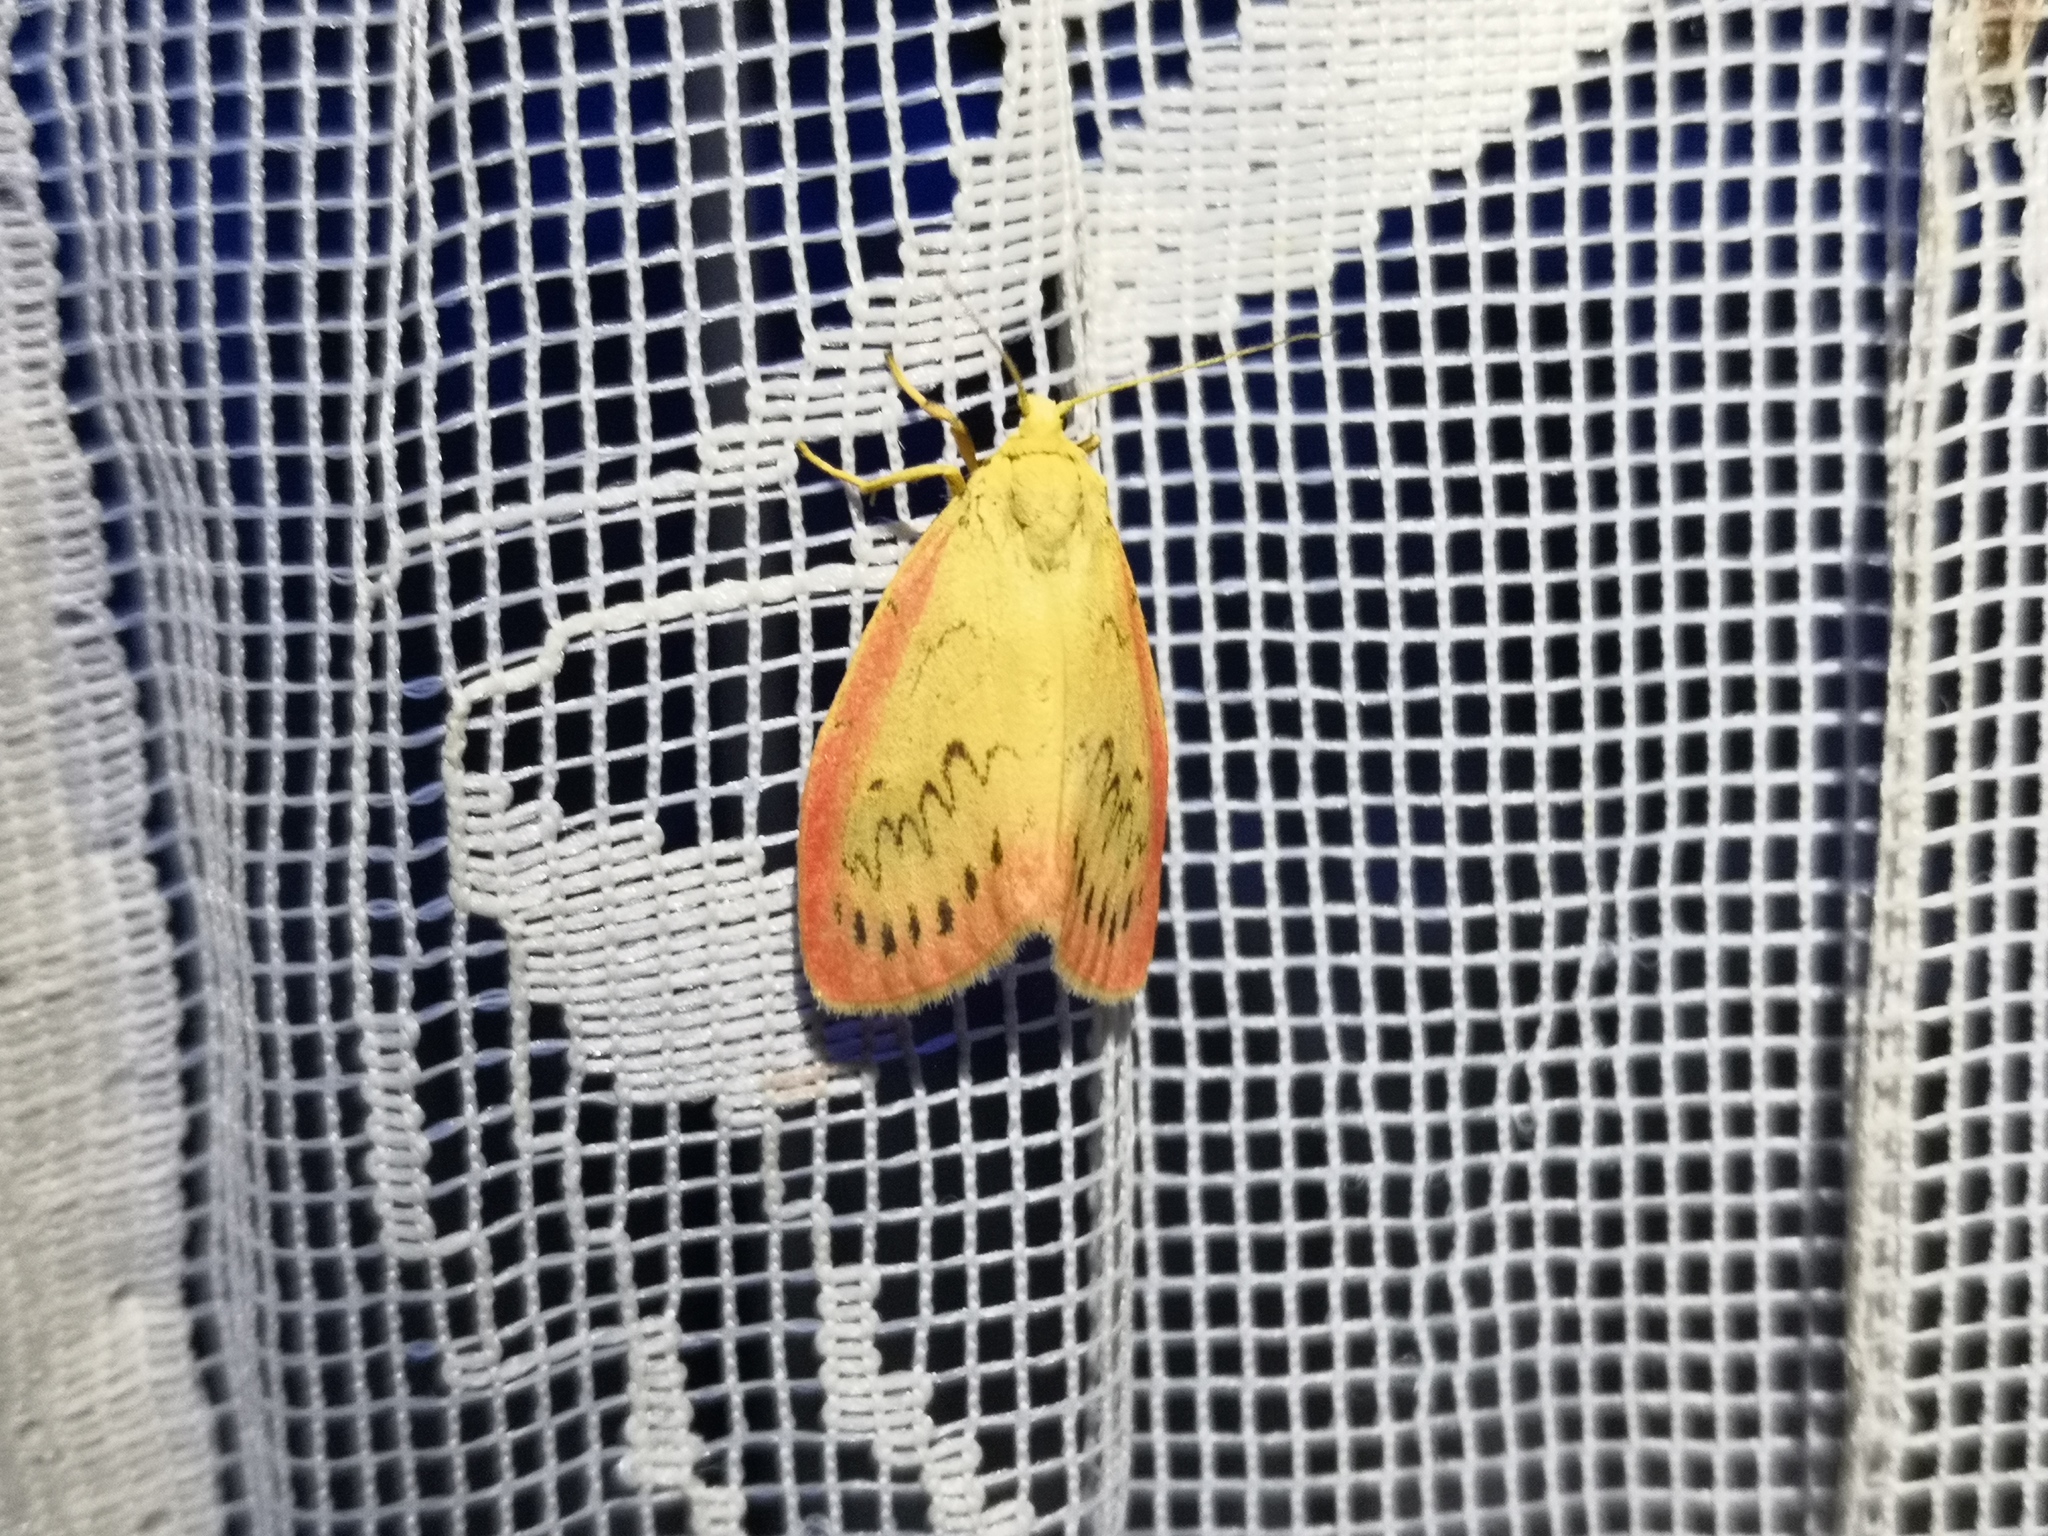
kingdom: Animalia
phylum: Arthropoda
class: Insecta
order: Lepidoptera
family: Erebidae
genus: Miltochrista
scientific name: Miltochrista miniata
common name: Rosy footman
